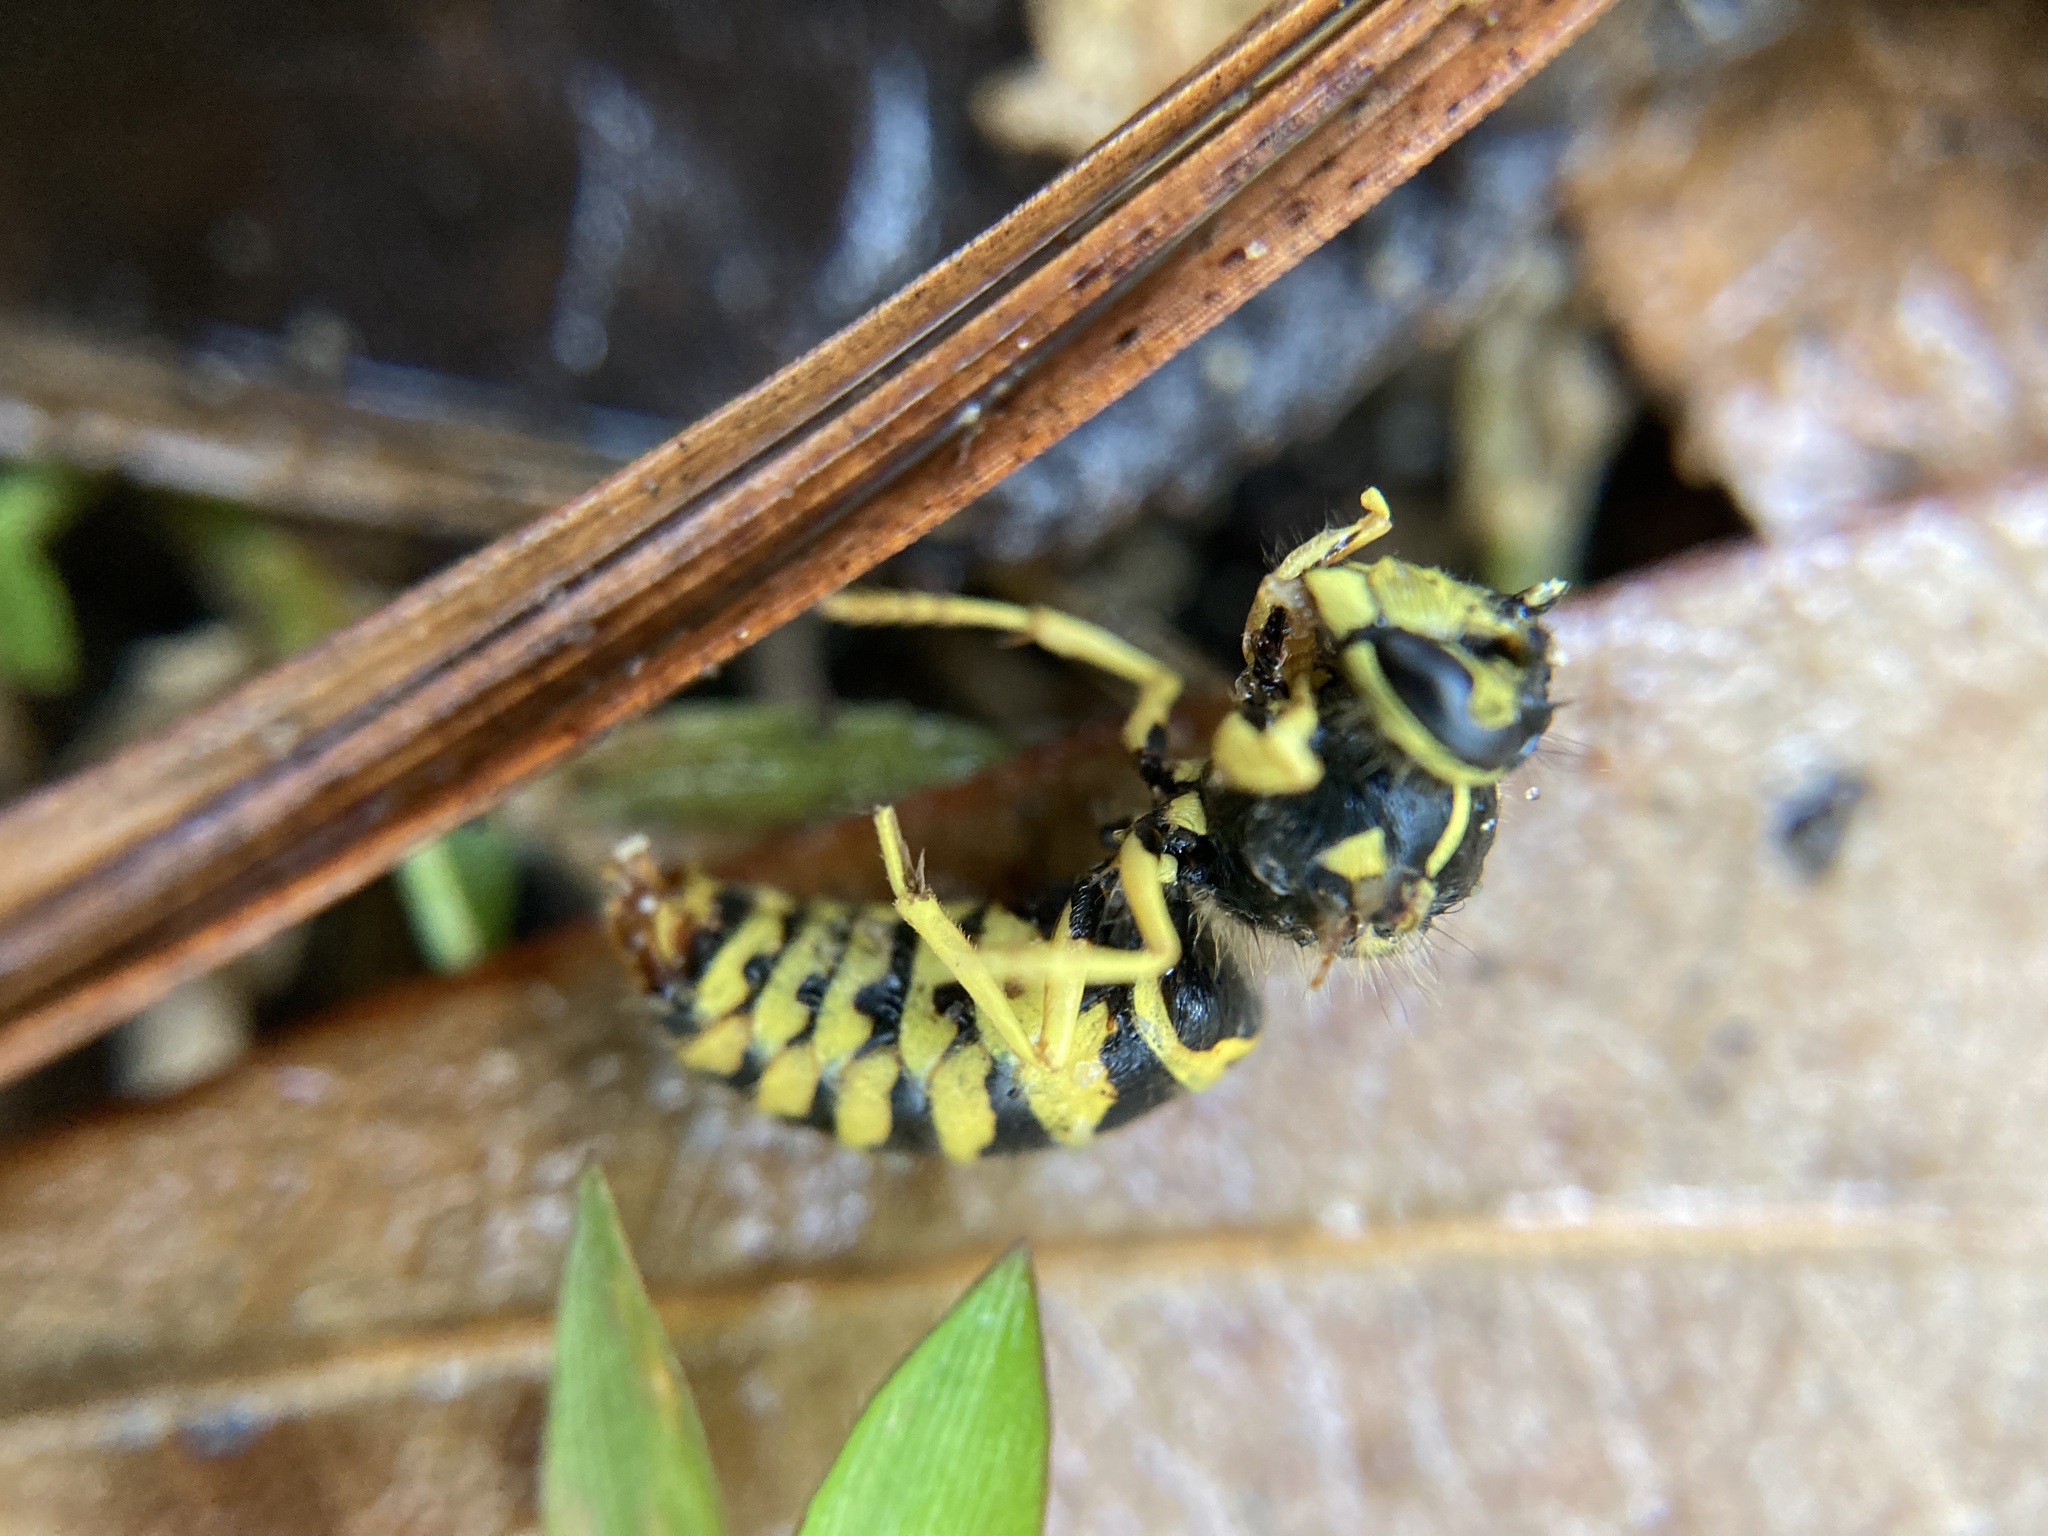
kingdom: Animalia
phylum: Arthropoda
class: Insecta
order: Hymenoptera
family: Vespidae
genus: Vespula
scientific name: Vespula maculifrons
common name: Eastern yellowjacket
